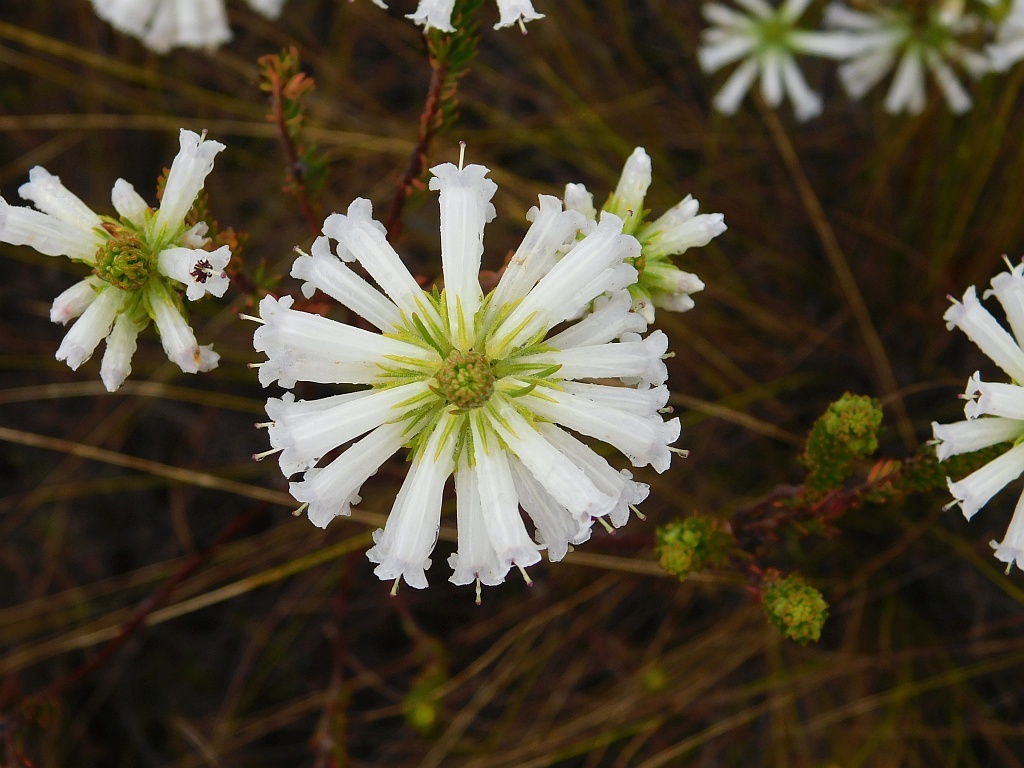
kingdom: Plantae
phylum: Tracheophyta
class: Magnoliopsida
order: Ericales
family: Ericaceae
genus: Erica
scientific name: Erica viscaria
